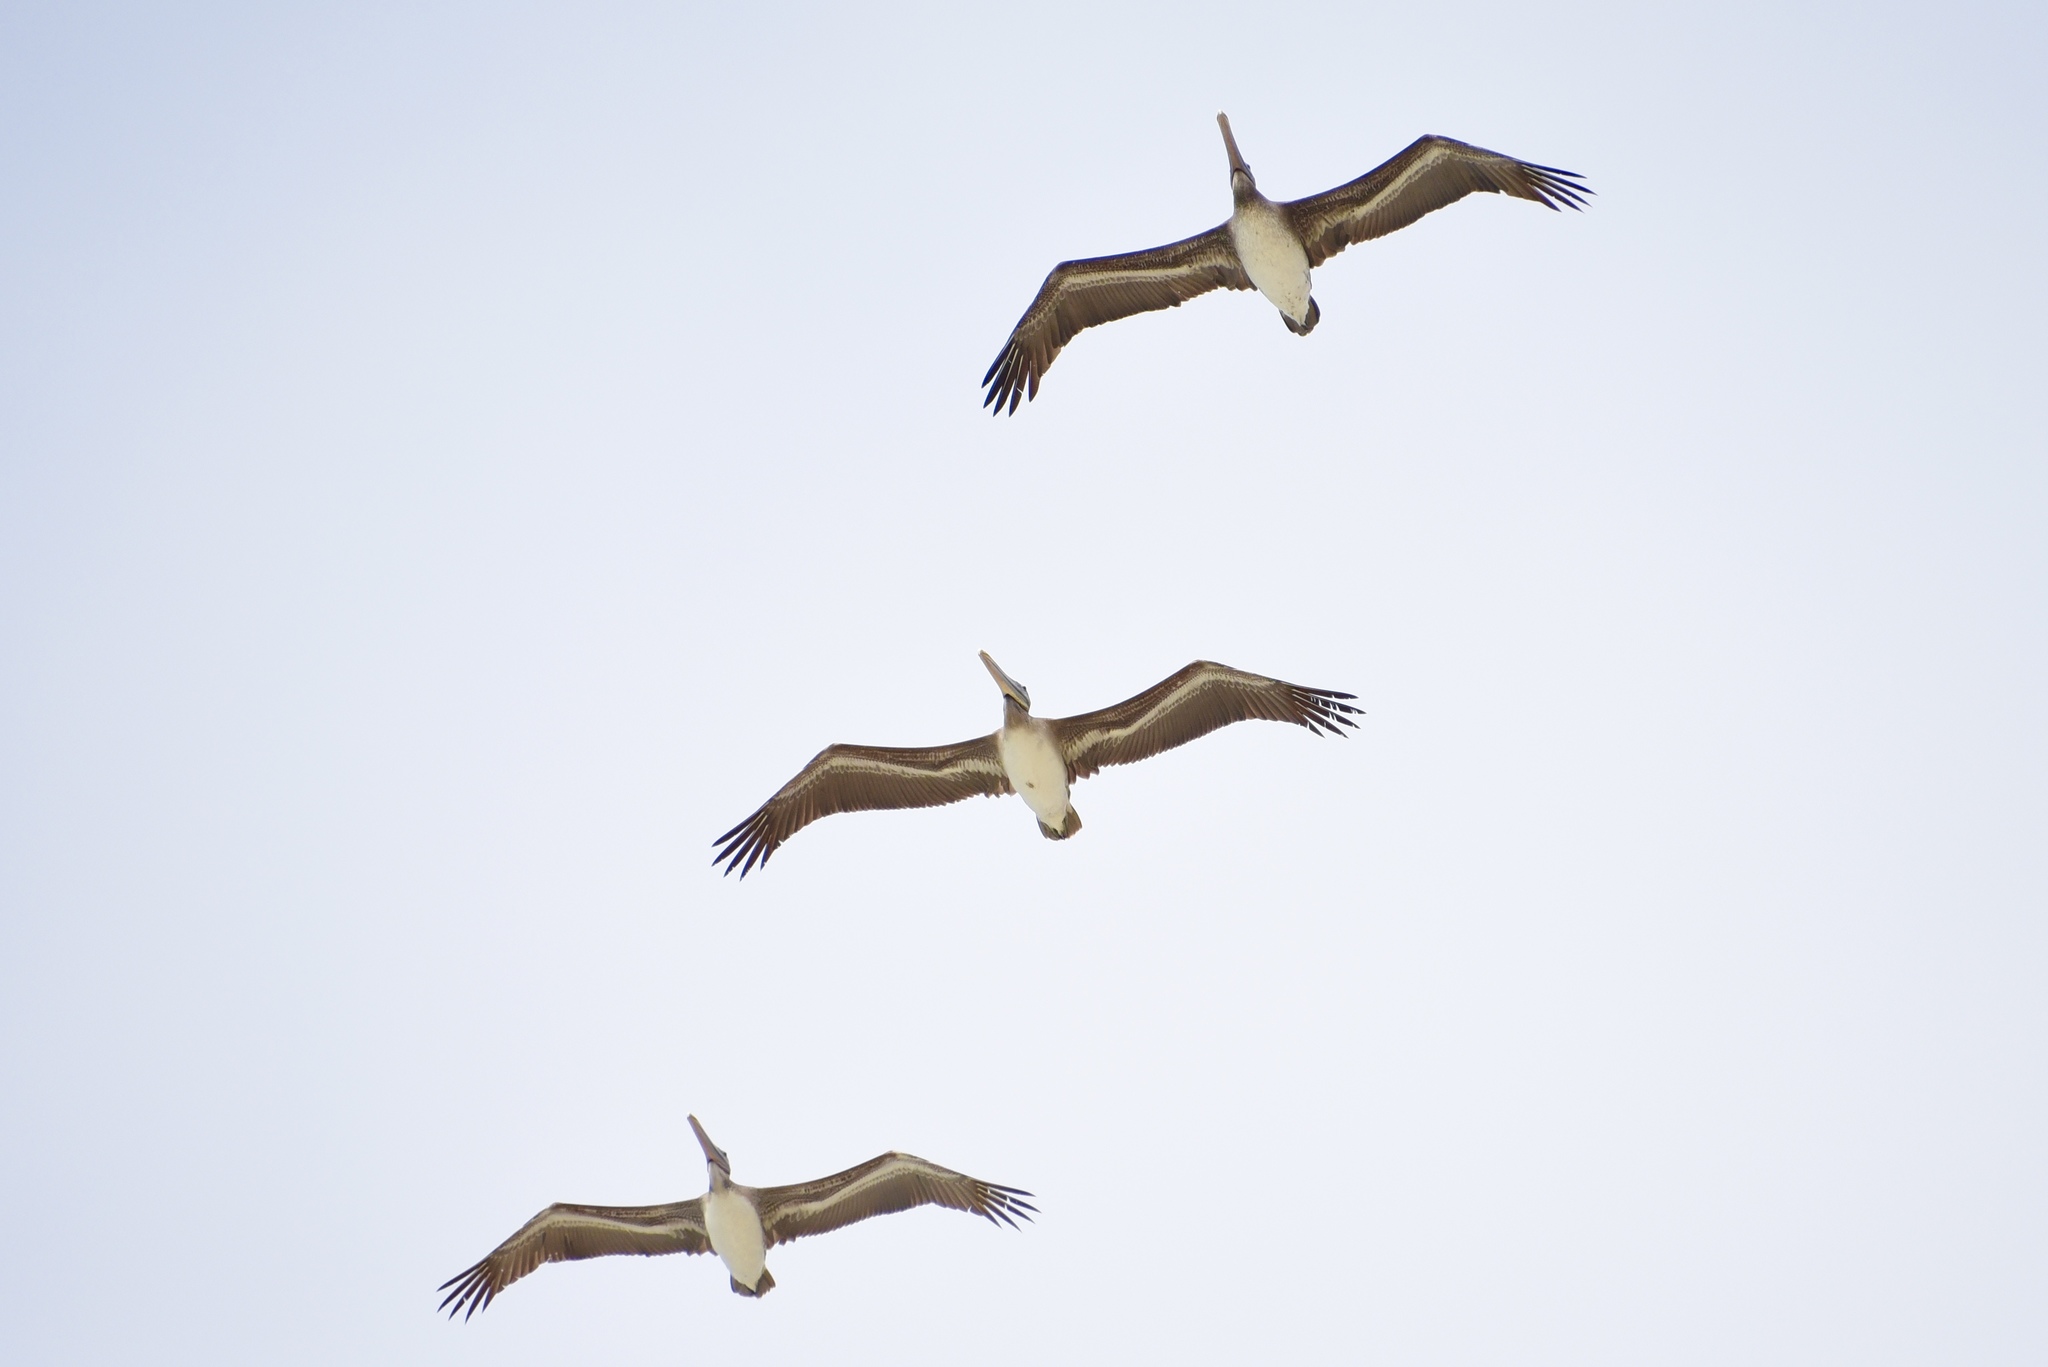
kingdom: Animalia
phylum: Chordata
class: Aves
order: Pelecaniformes
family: Pelecanidae
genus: Pelecanus
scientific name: Pelecanus occidentalis
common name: Brown pelican
